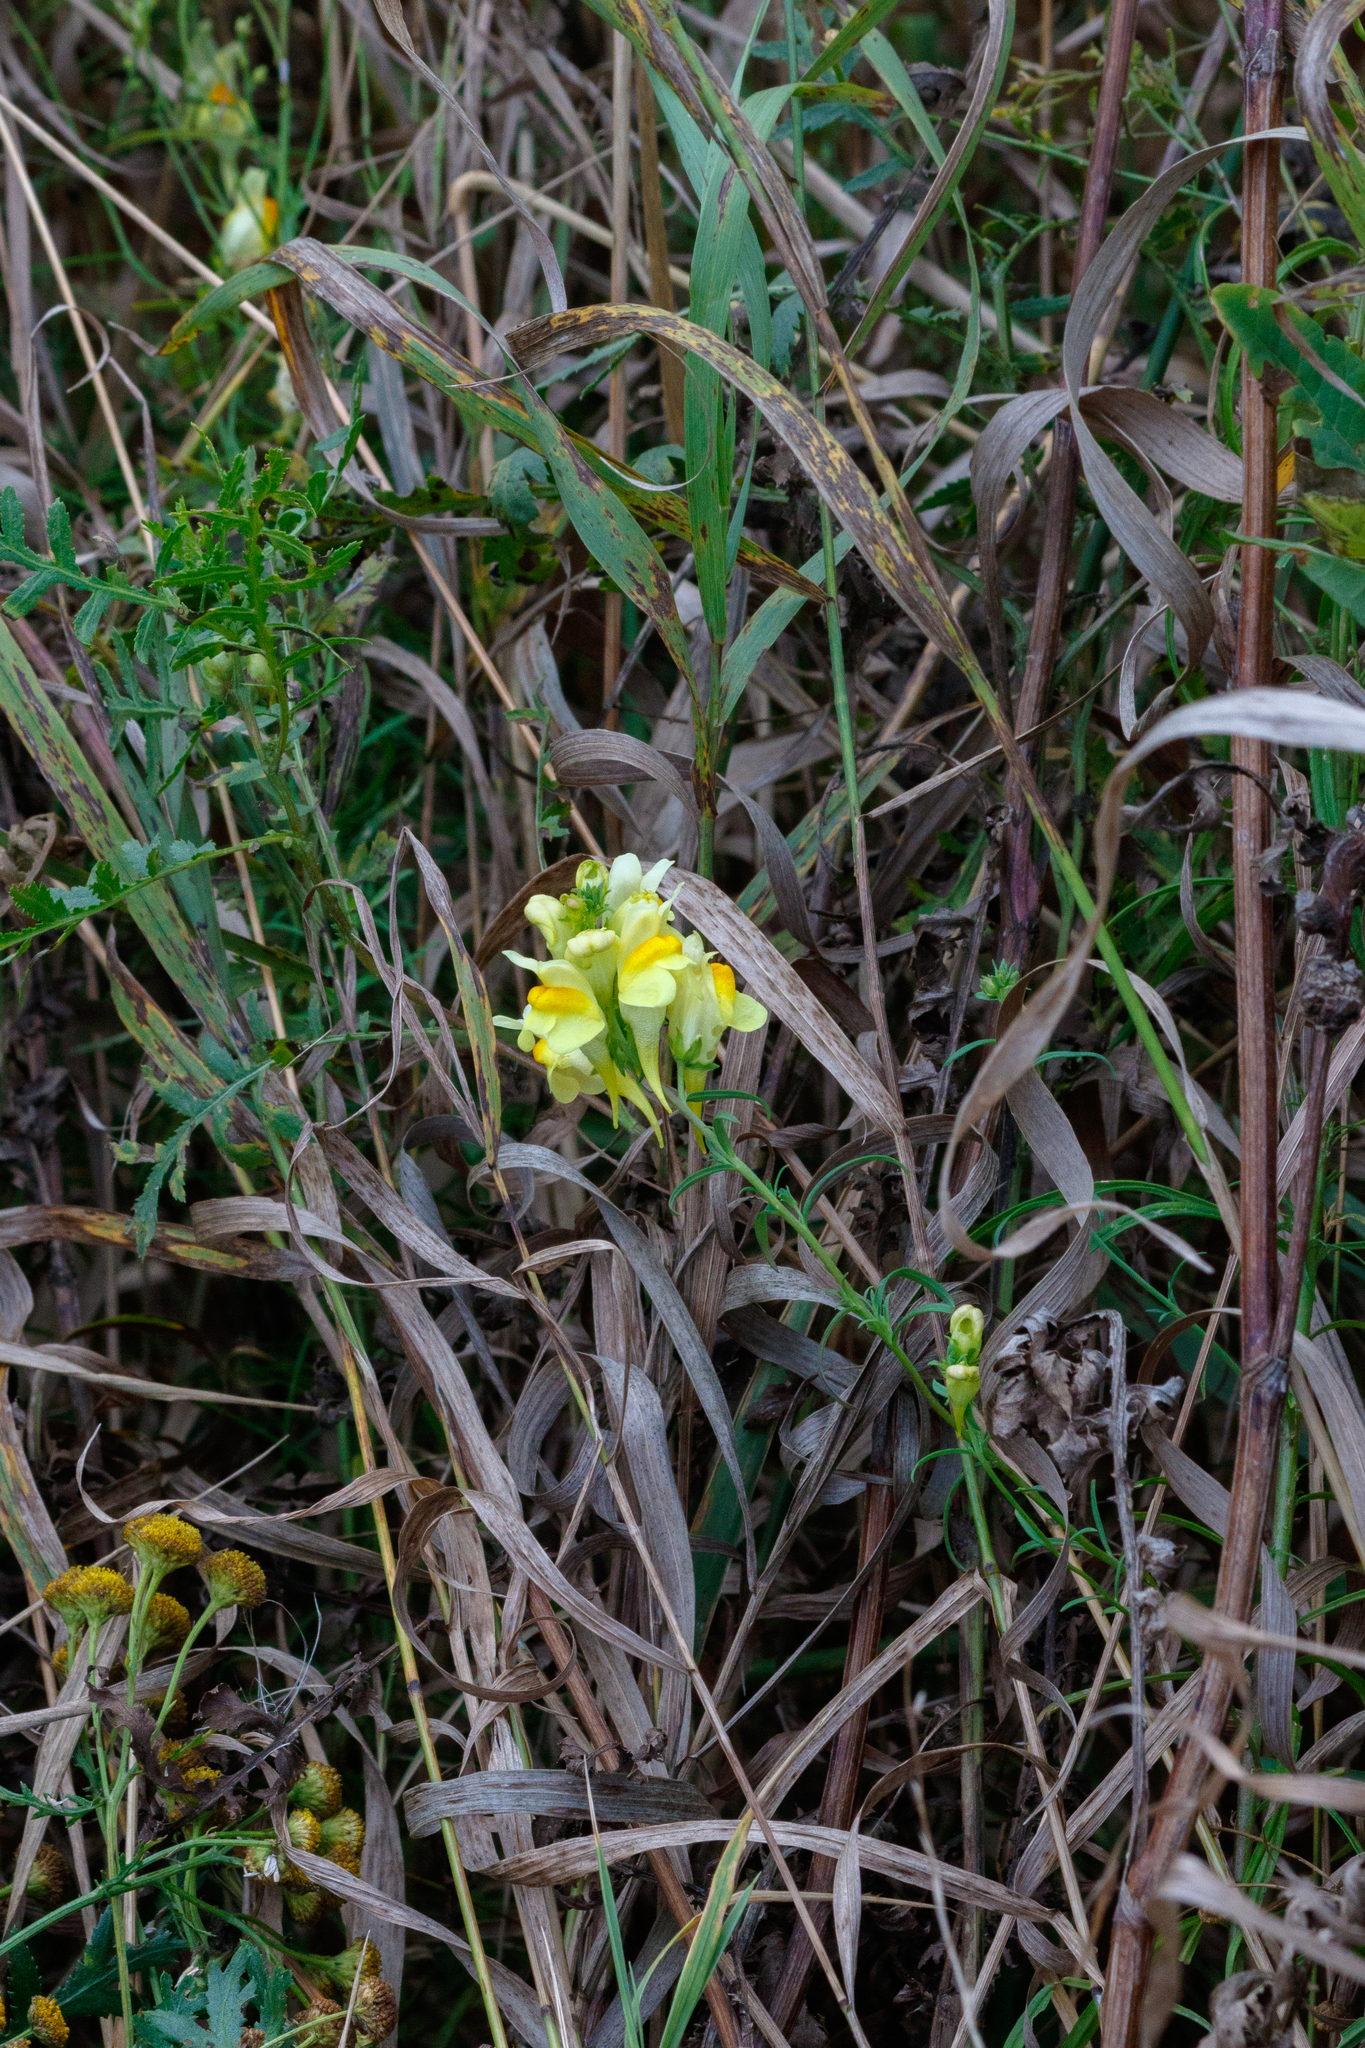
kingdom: Plantae
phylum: Tracheophyta
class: Magnoliopsida
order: Lamiales
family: Plantaginaceae
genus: Linaria
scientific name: Linaria vulgaris
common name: Butter and eggs
